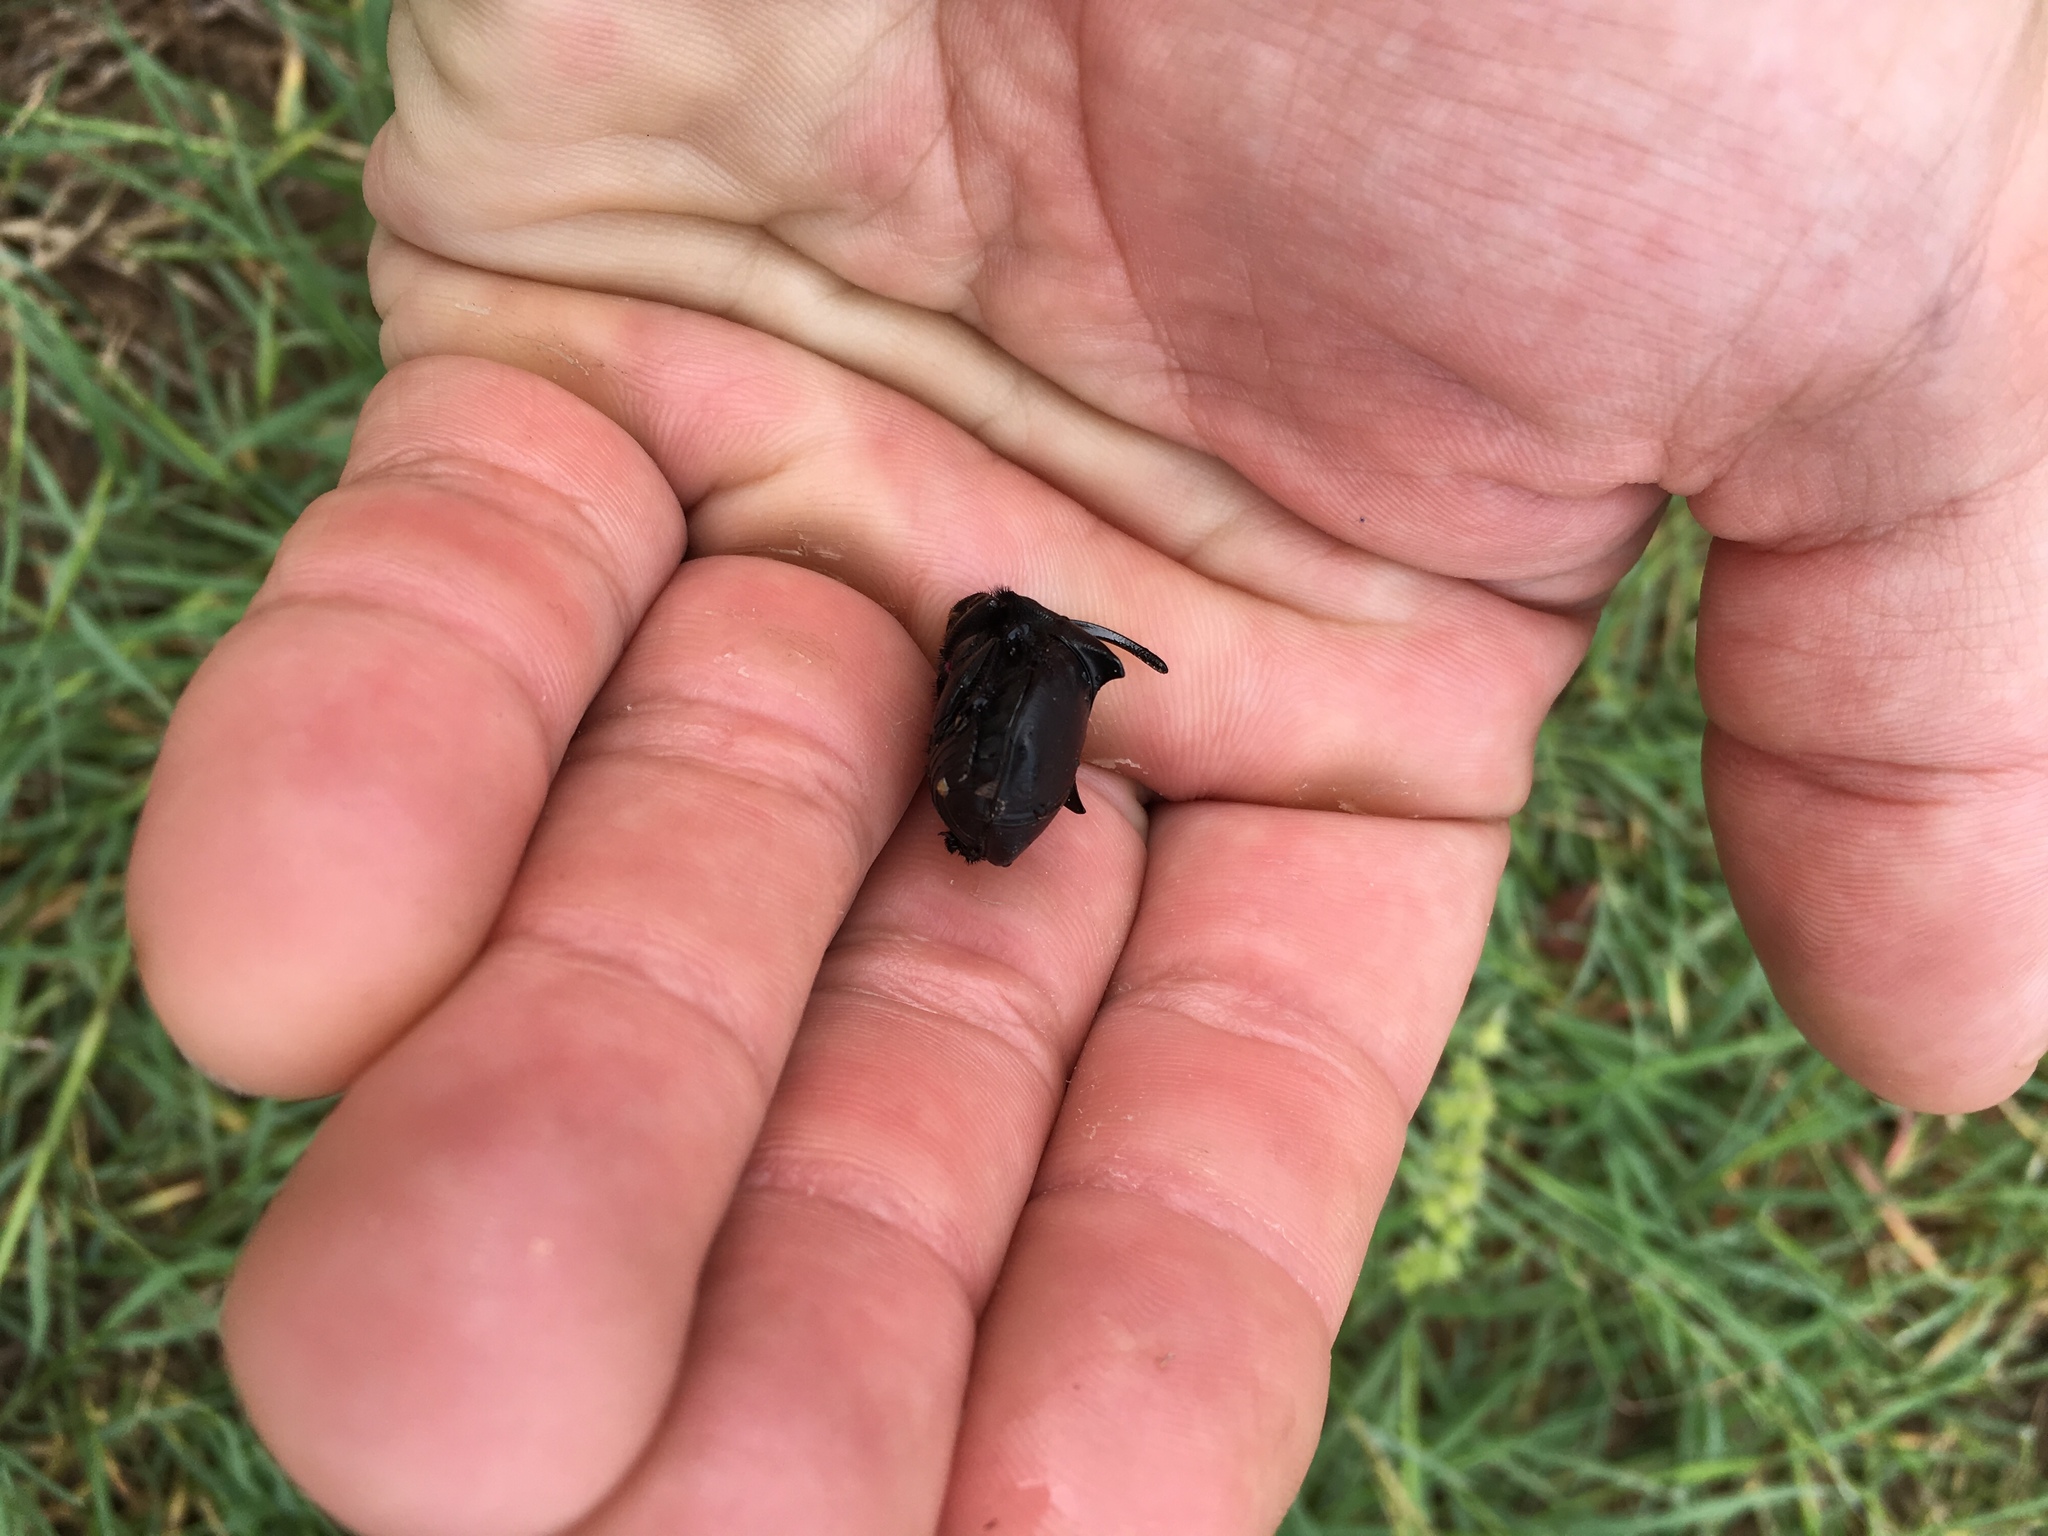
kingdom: Animalia
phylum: Arthropoda
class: Insecta
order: Coleoptera
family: Scarabaeidae
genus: Phanaeus
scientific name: Phanaeus texensis
